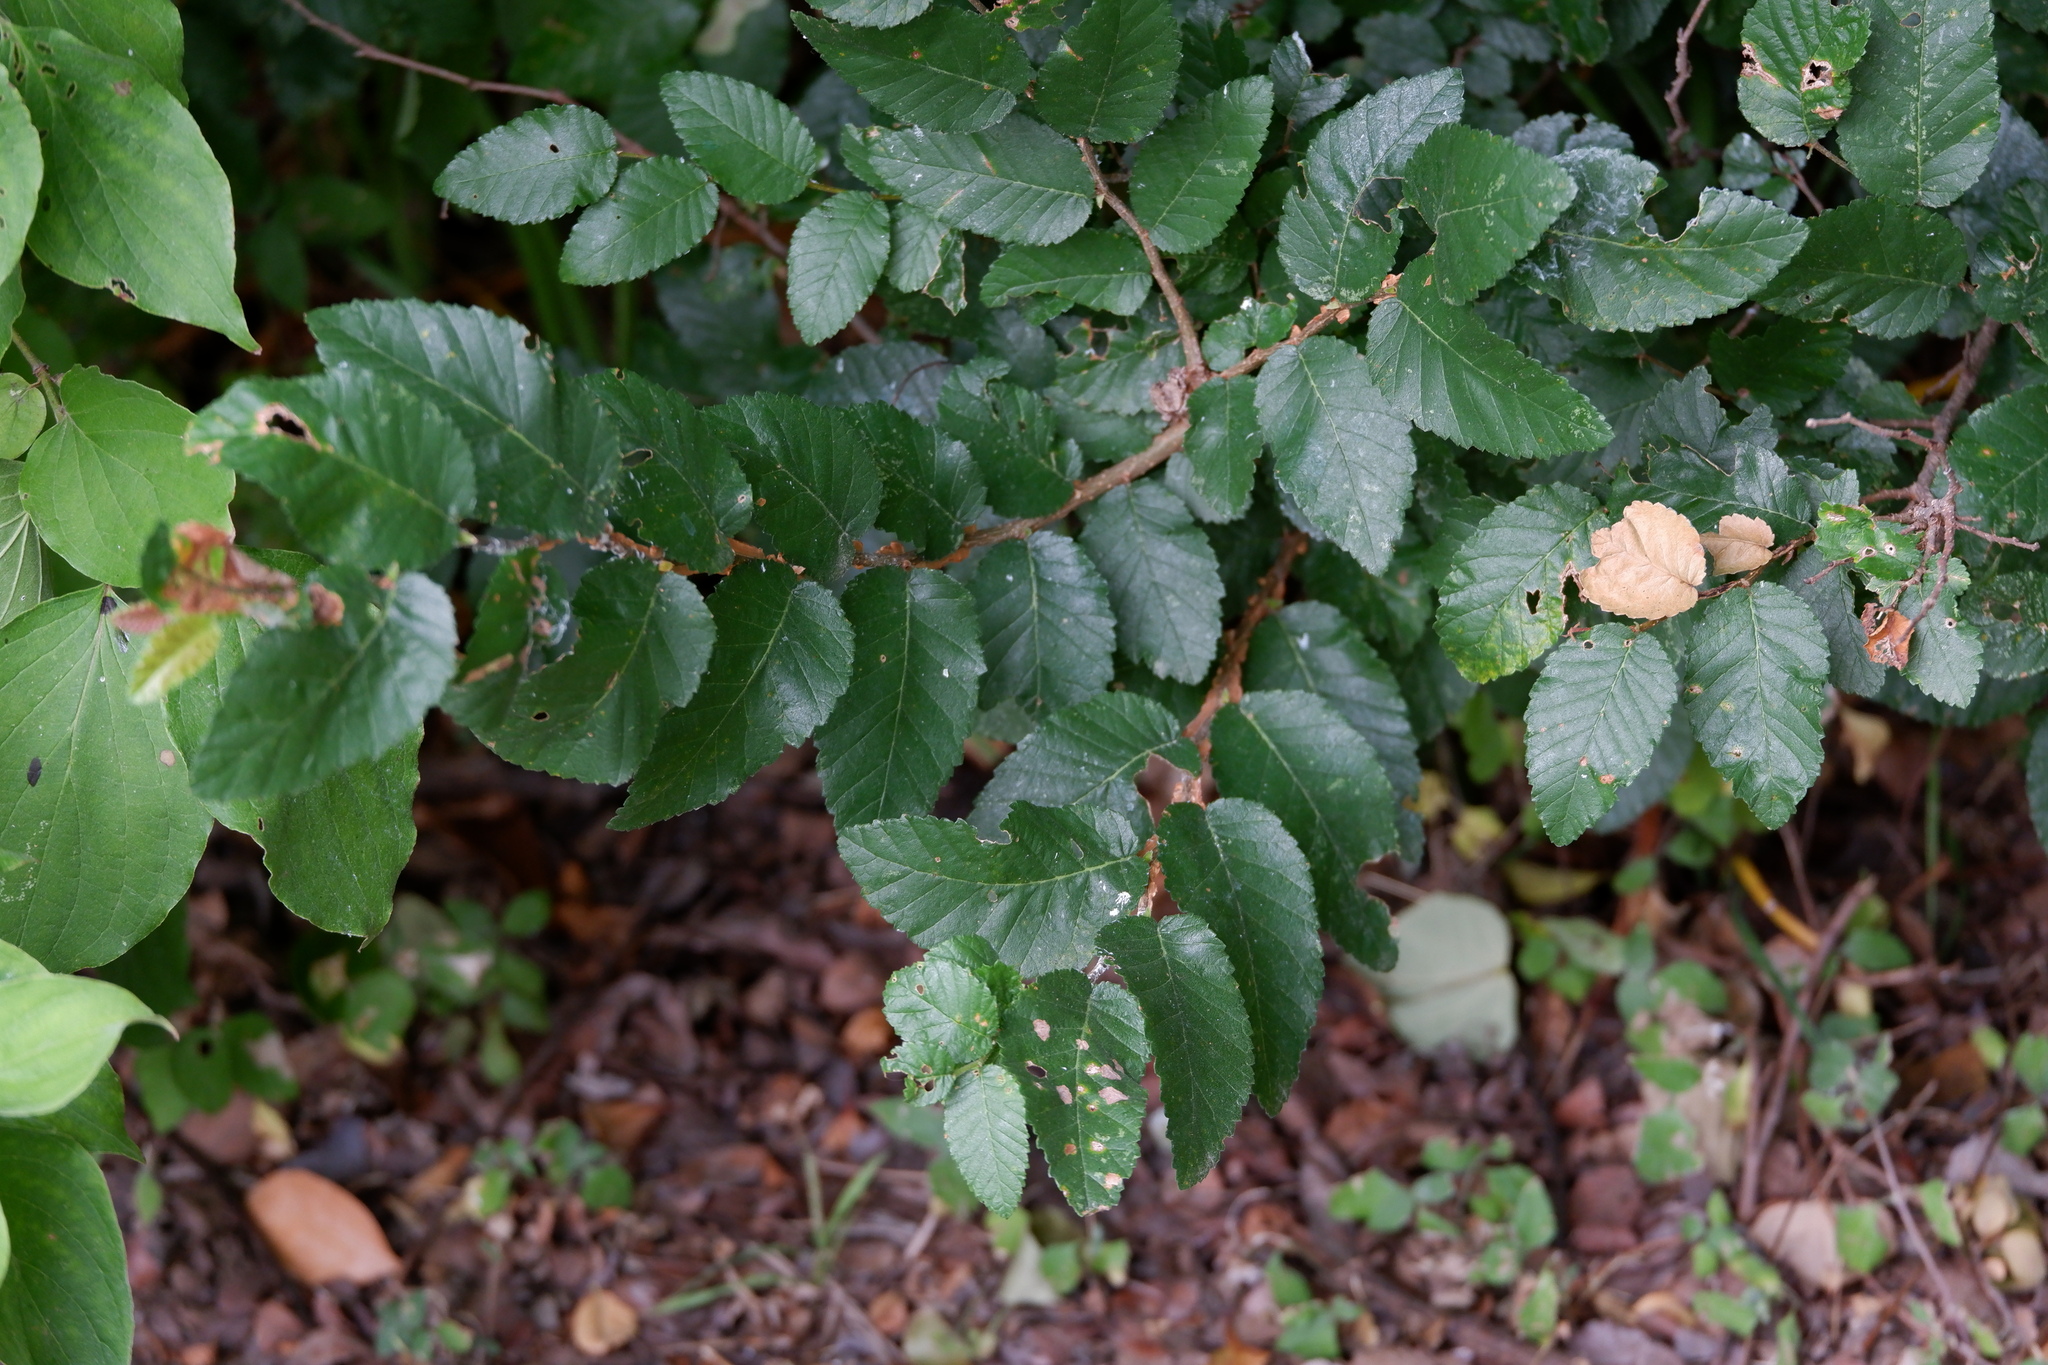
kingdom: Plantae
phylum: Tracheophyta
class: Magnoliopsida
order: Rosales
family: Ulmaceae
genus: Ulmus
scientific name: Ulmus crassifolia
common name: Basket elm
